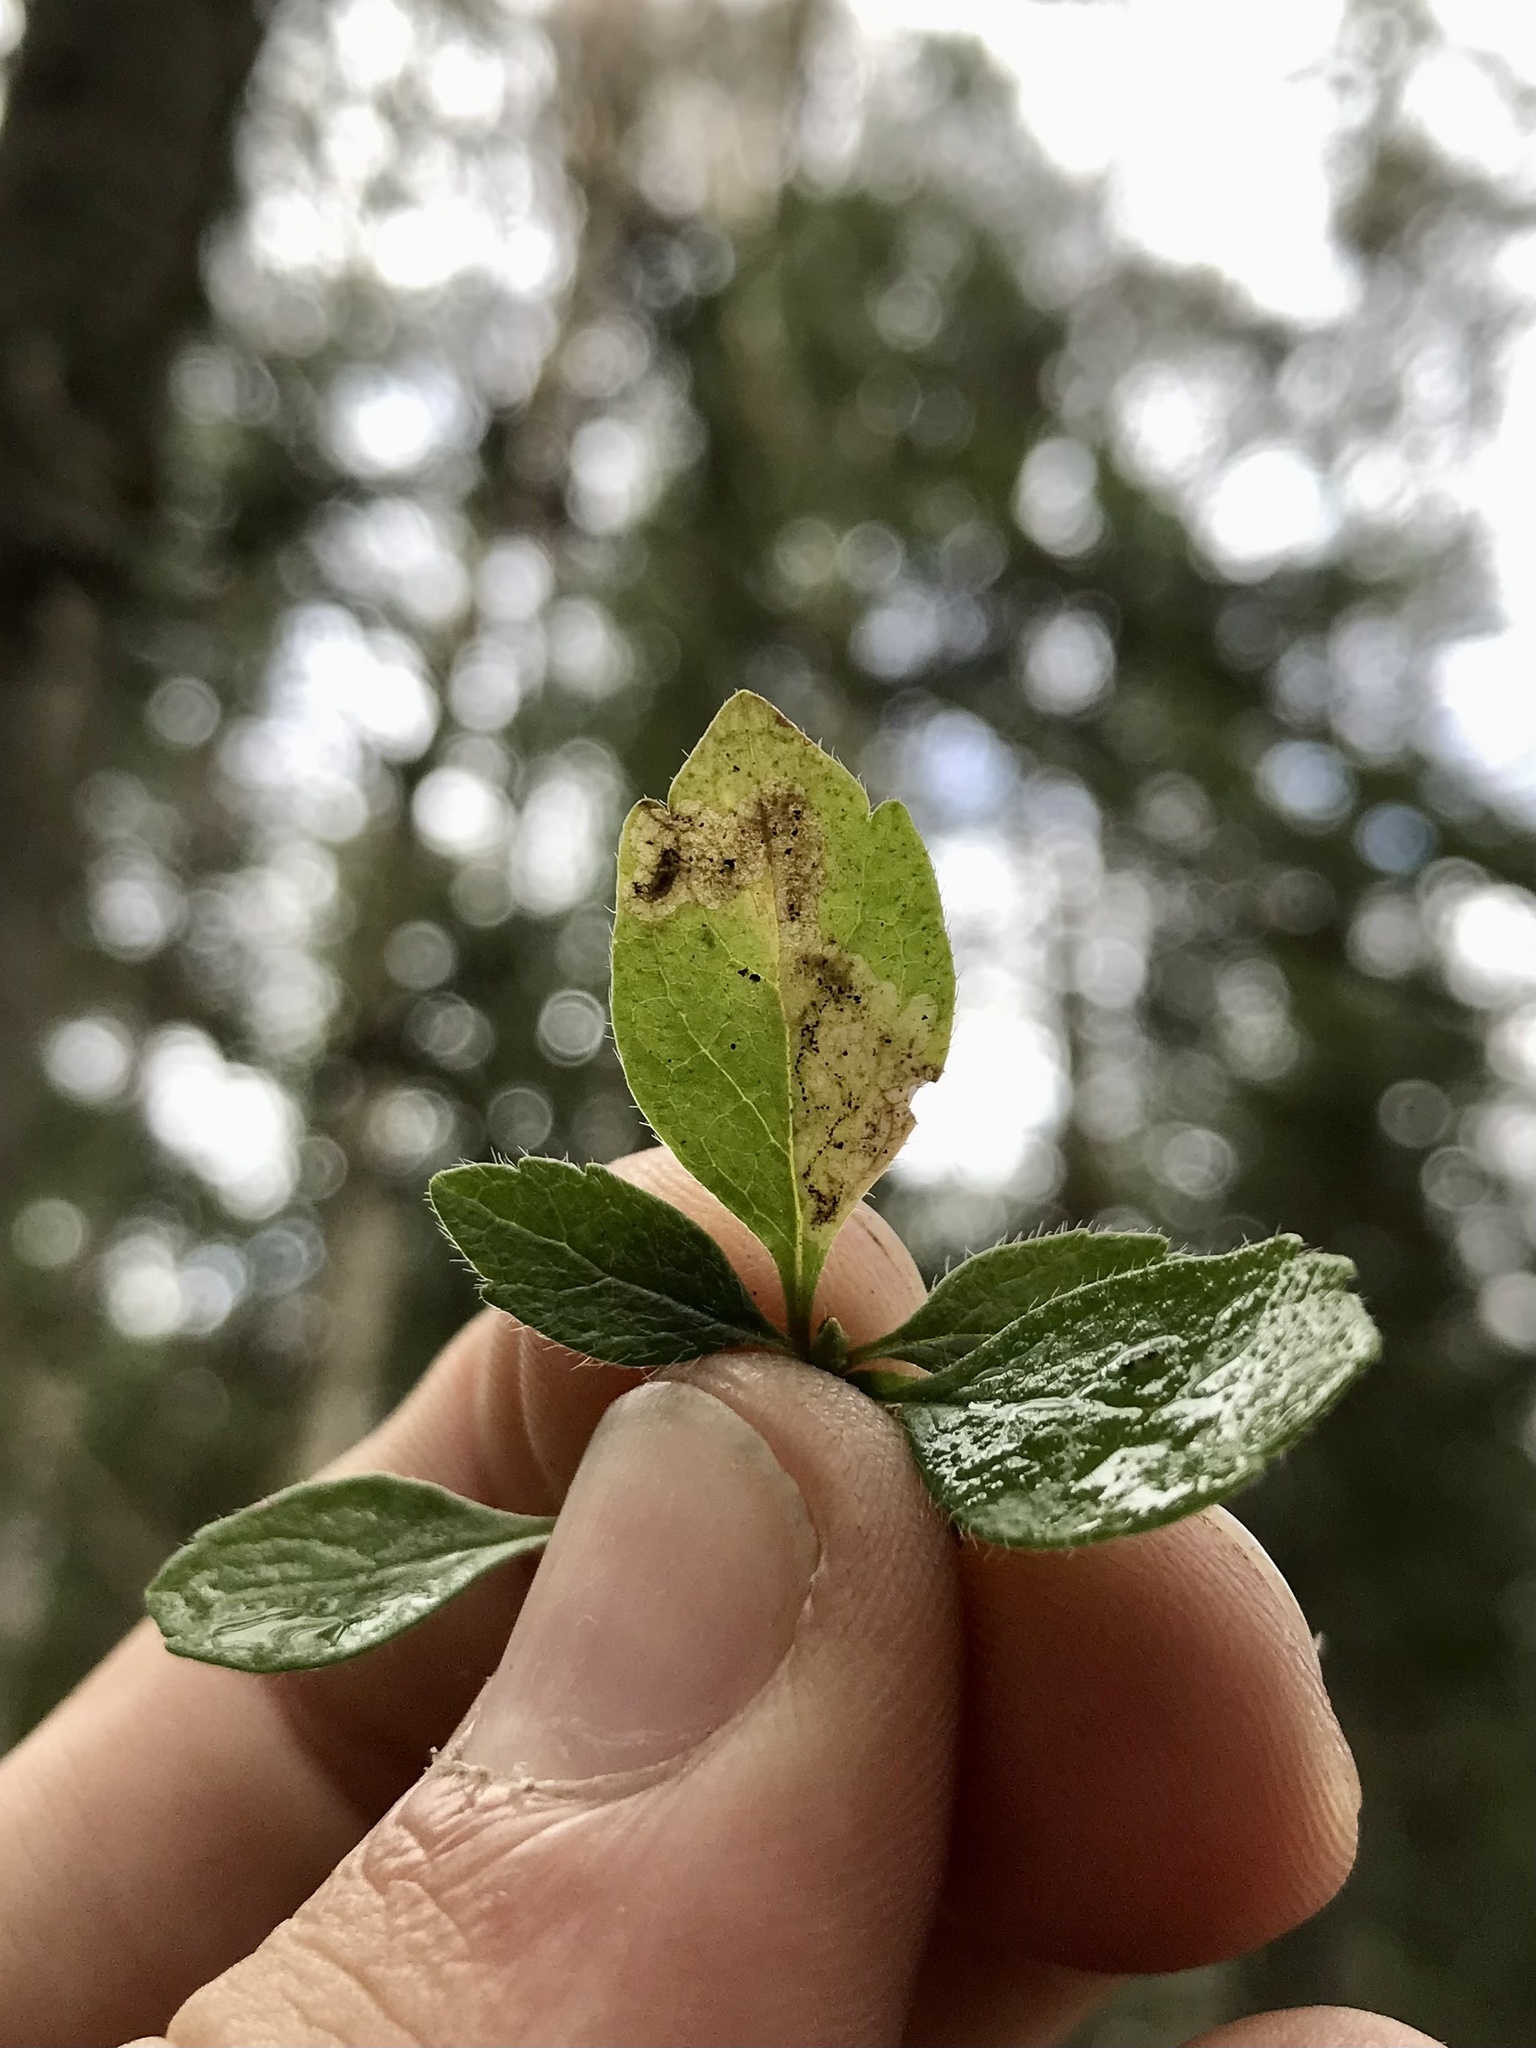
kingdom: Animalia
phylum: Arthropoda
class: Insecta
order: Diptera
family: Agromyzidae
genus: Phytomyza
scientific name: Phytomyza linnaeae
